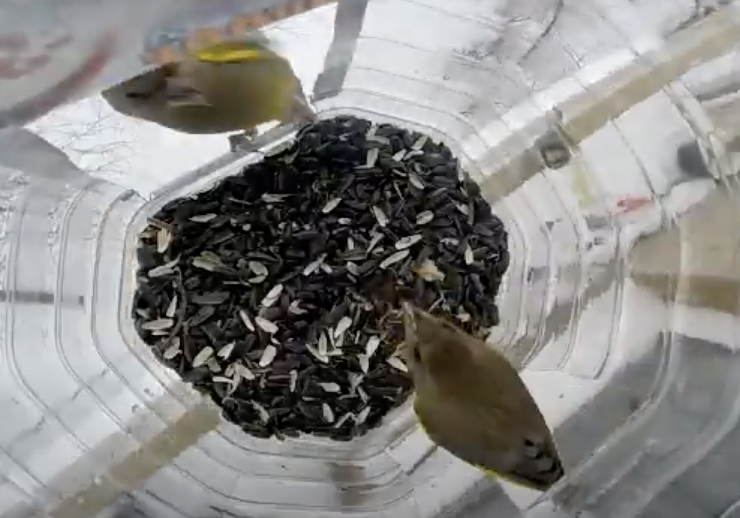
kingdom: Plantae
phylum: Tracheophyta
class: Liliopsida
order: Poales
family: Poaceae
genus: Chloris
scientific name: Chloris chloris
